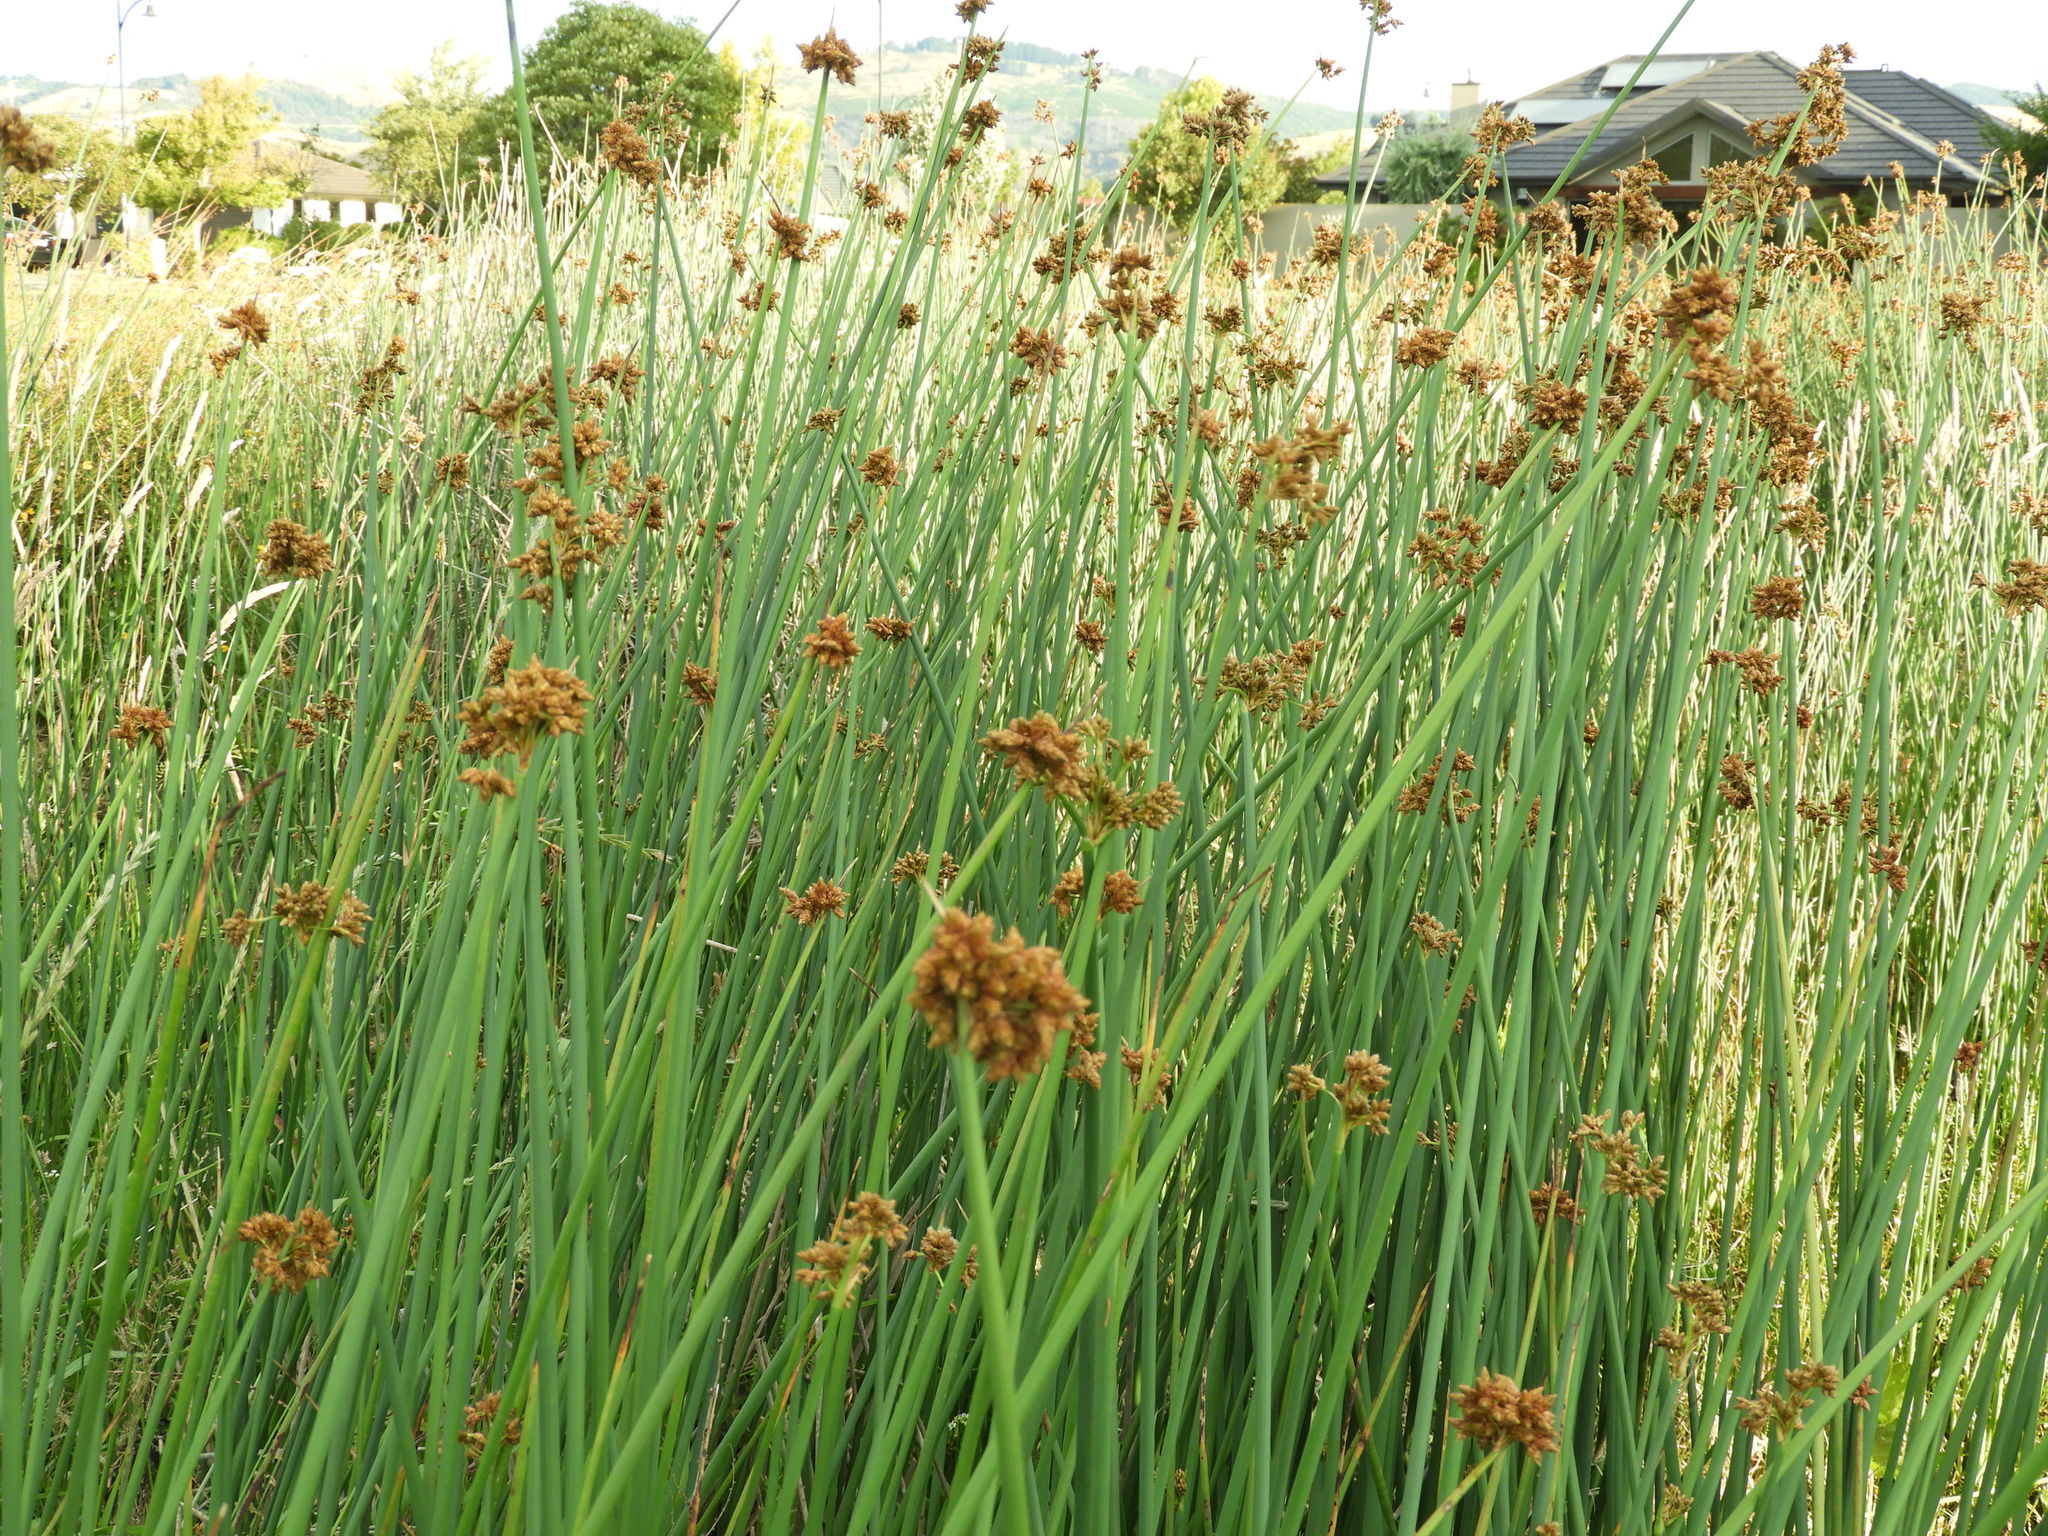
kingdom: Plantae
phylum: Tracheophyta
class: Liliopsida
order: Poales
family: Cyperaceae
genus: Schoenoplectus
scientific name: Schoenoplectus tabernaemontani
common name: Grey club-rush
